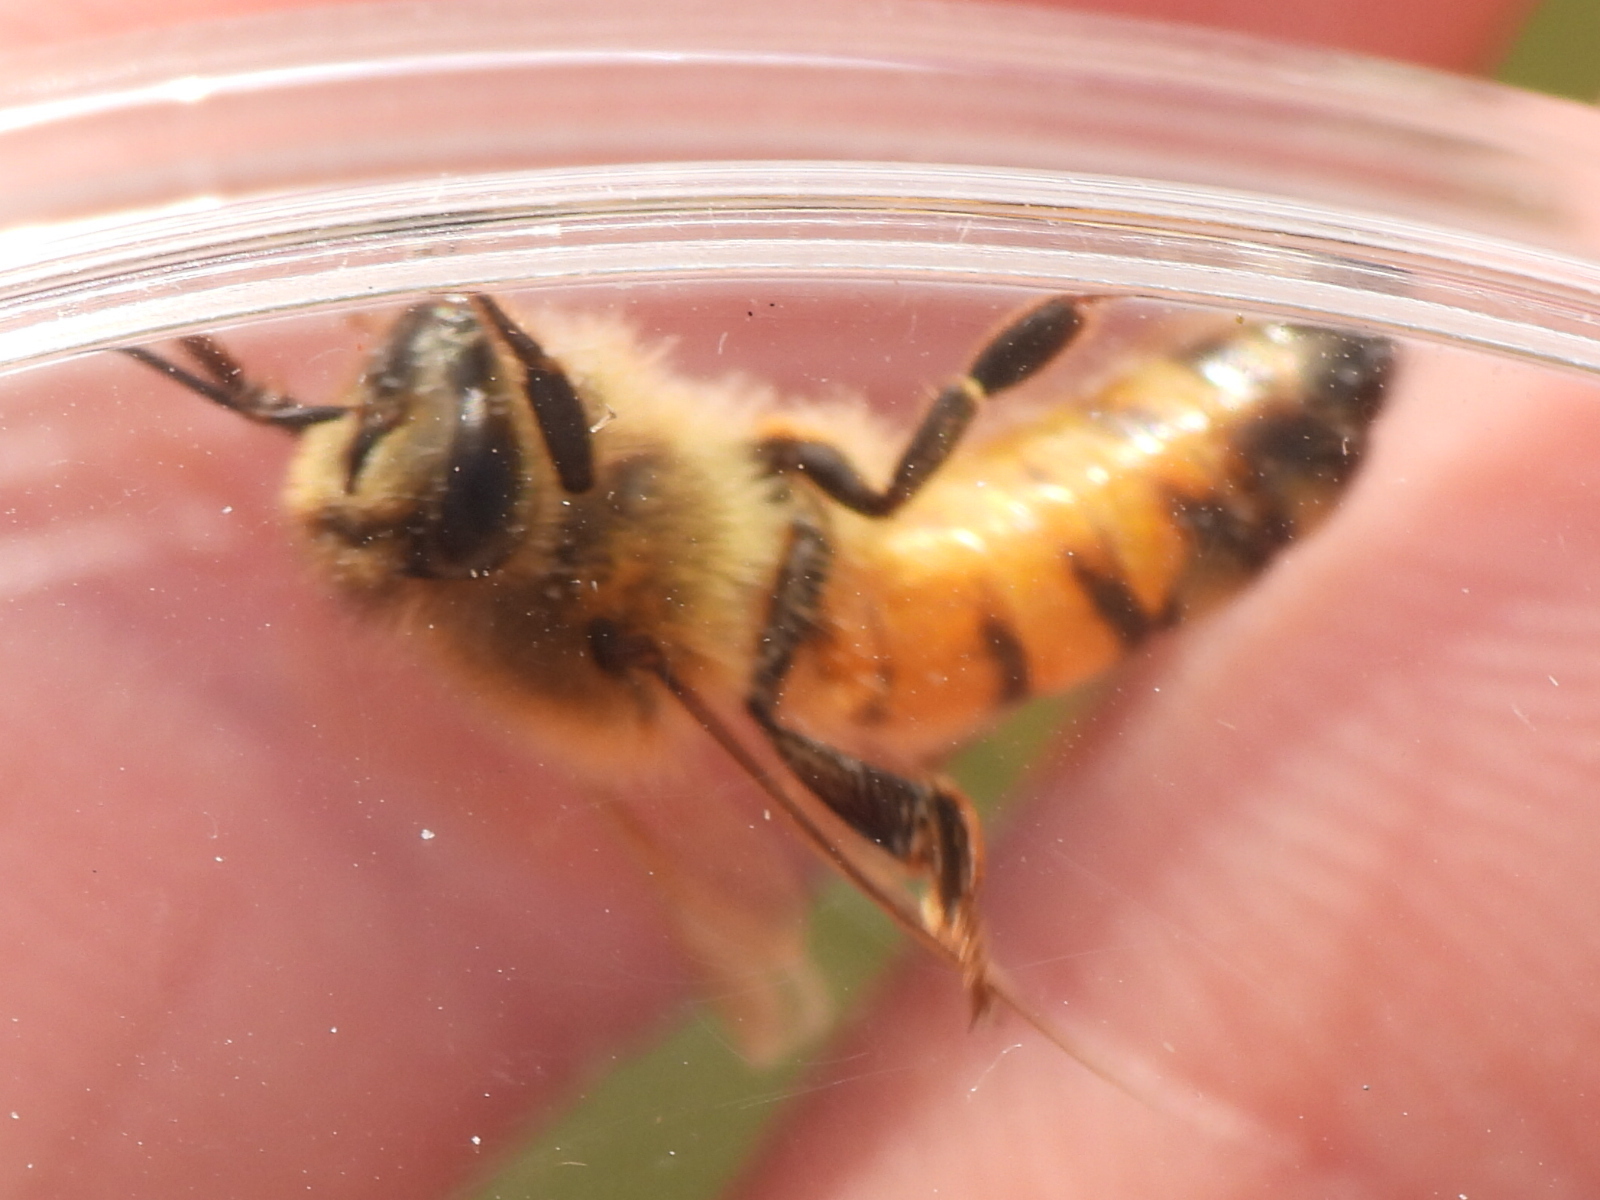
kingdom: Animalia
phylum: Arthropoda
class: Insecta
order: Hymenoptera
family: Apidae
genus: Apis
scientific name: Apis mellifera
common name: Honey bee
